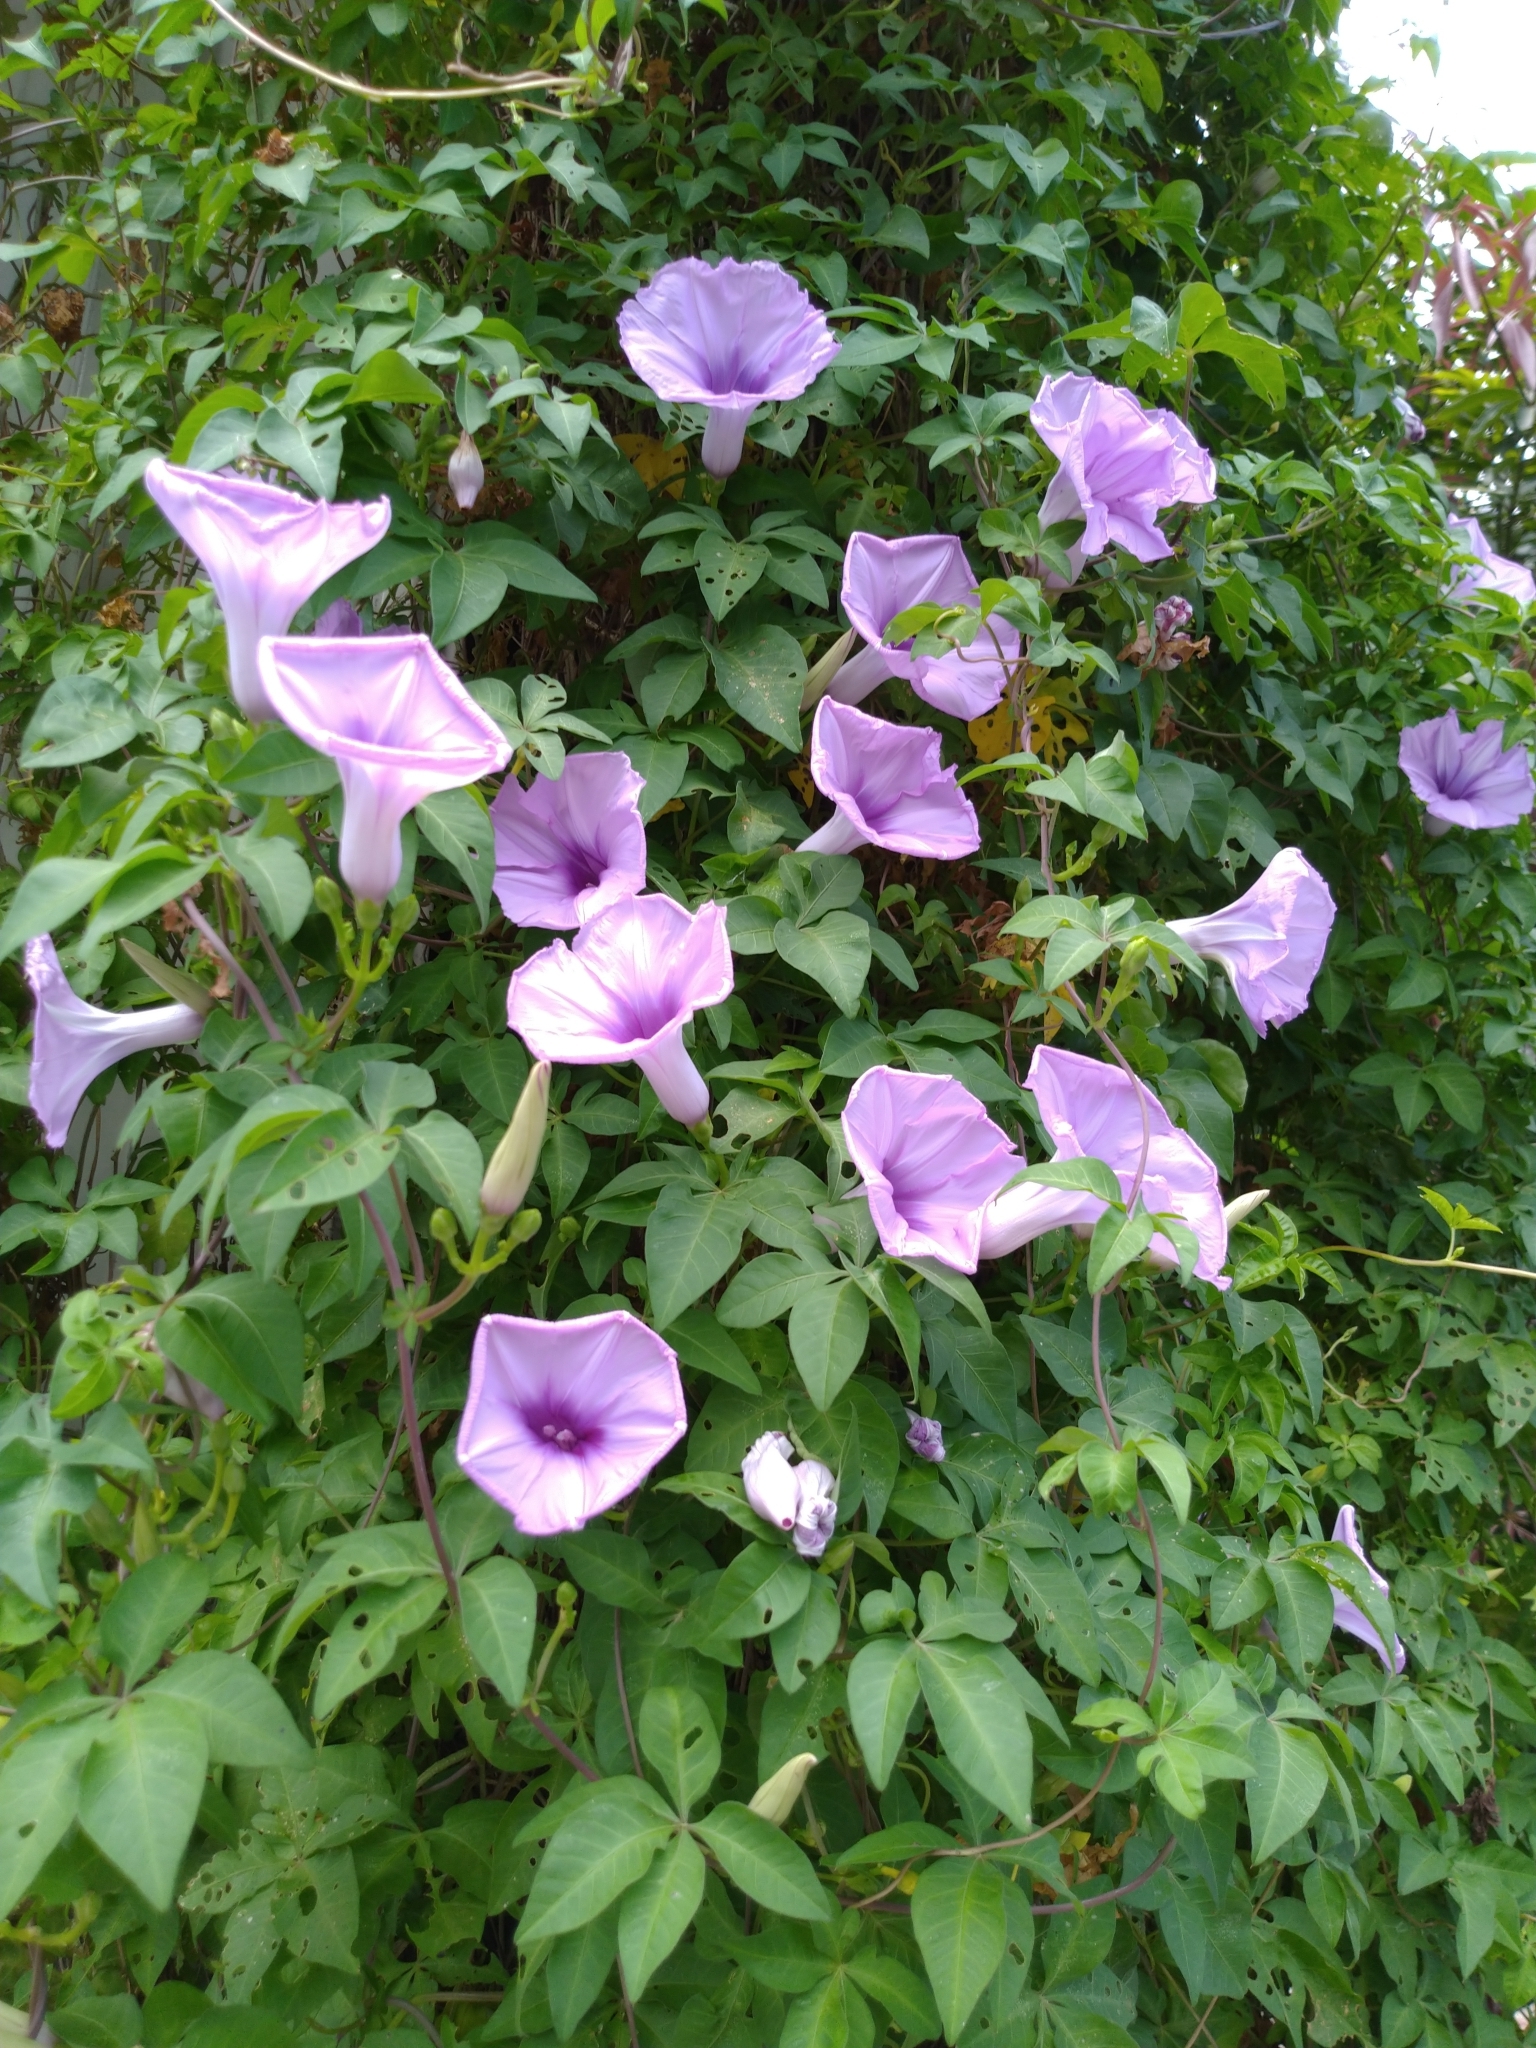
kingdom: Plantae
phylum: Tracheophyta
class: Magnoliopsida
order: Solanales
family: Convolvulaceae
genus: Ipomoea
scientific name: Ipomoea cairica
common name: Mile a minute vine
